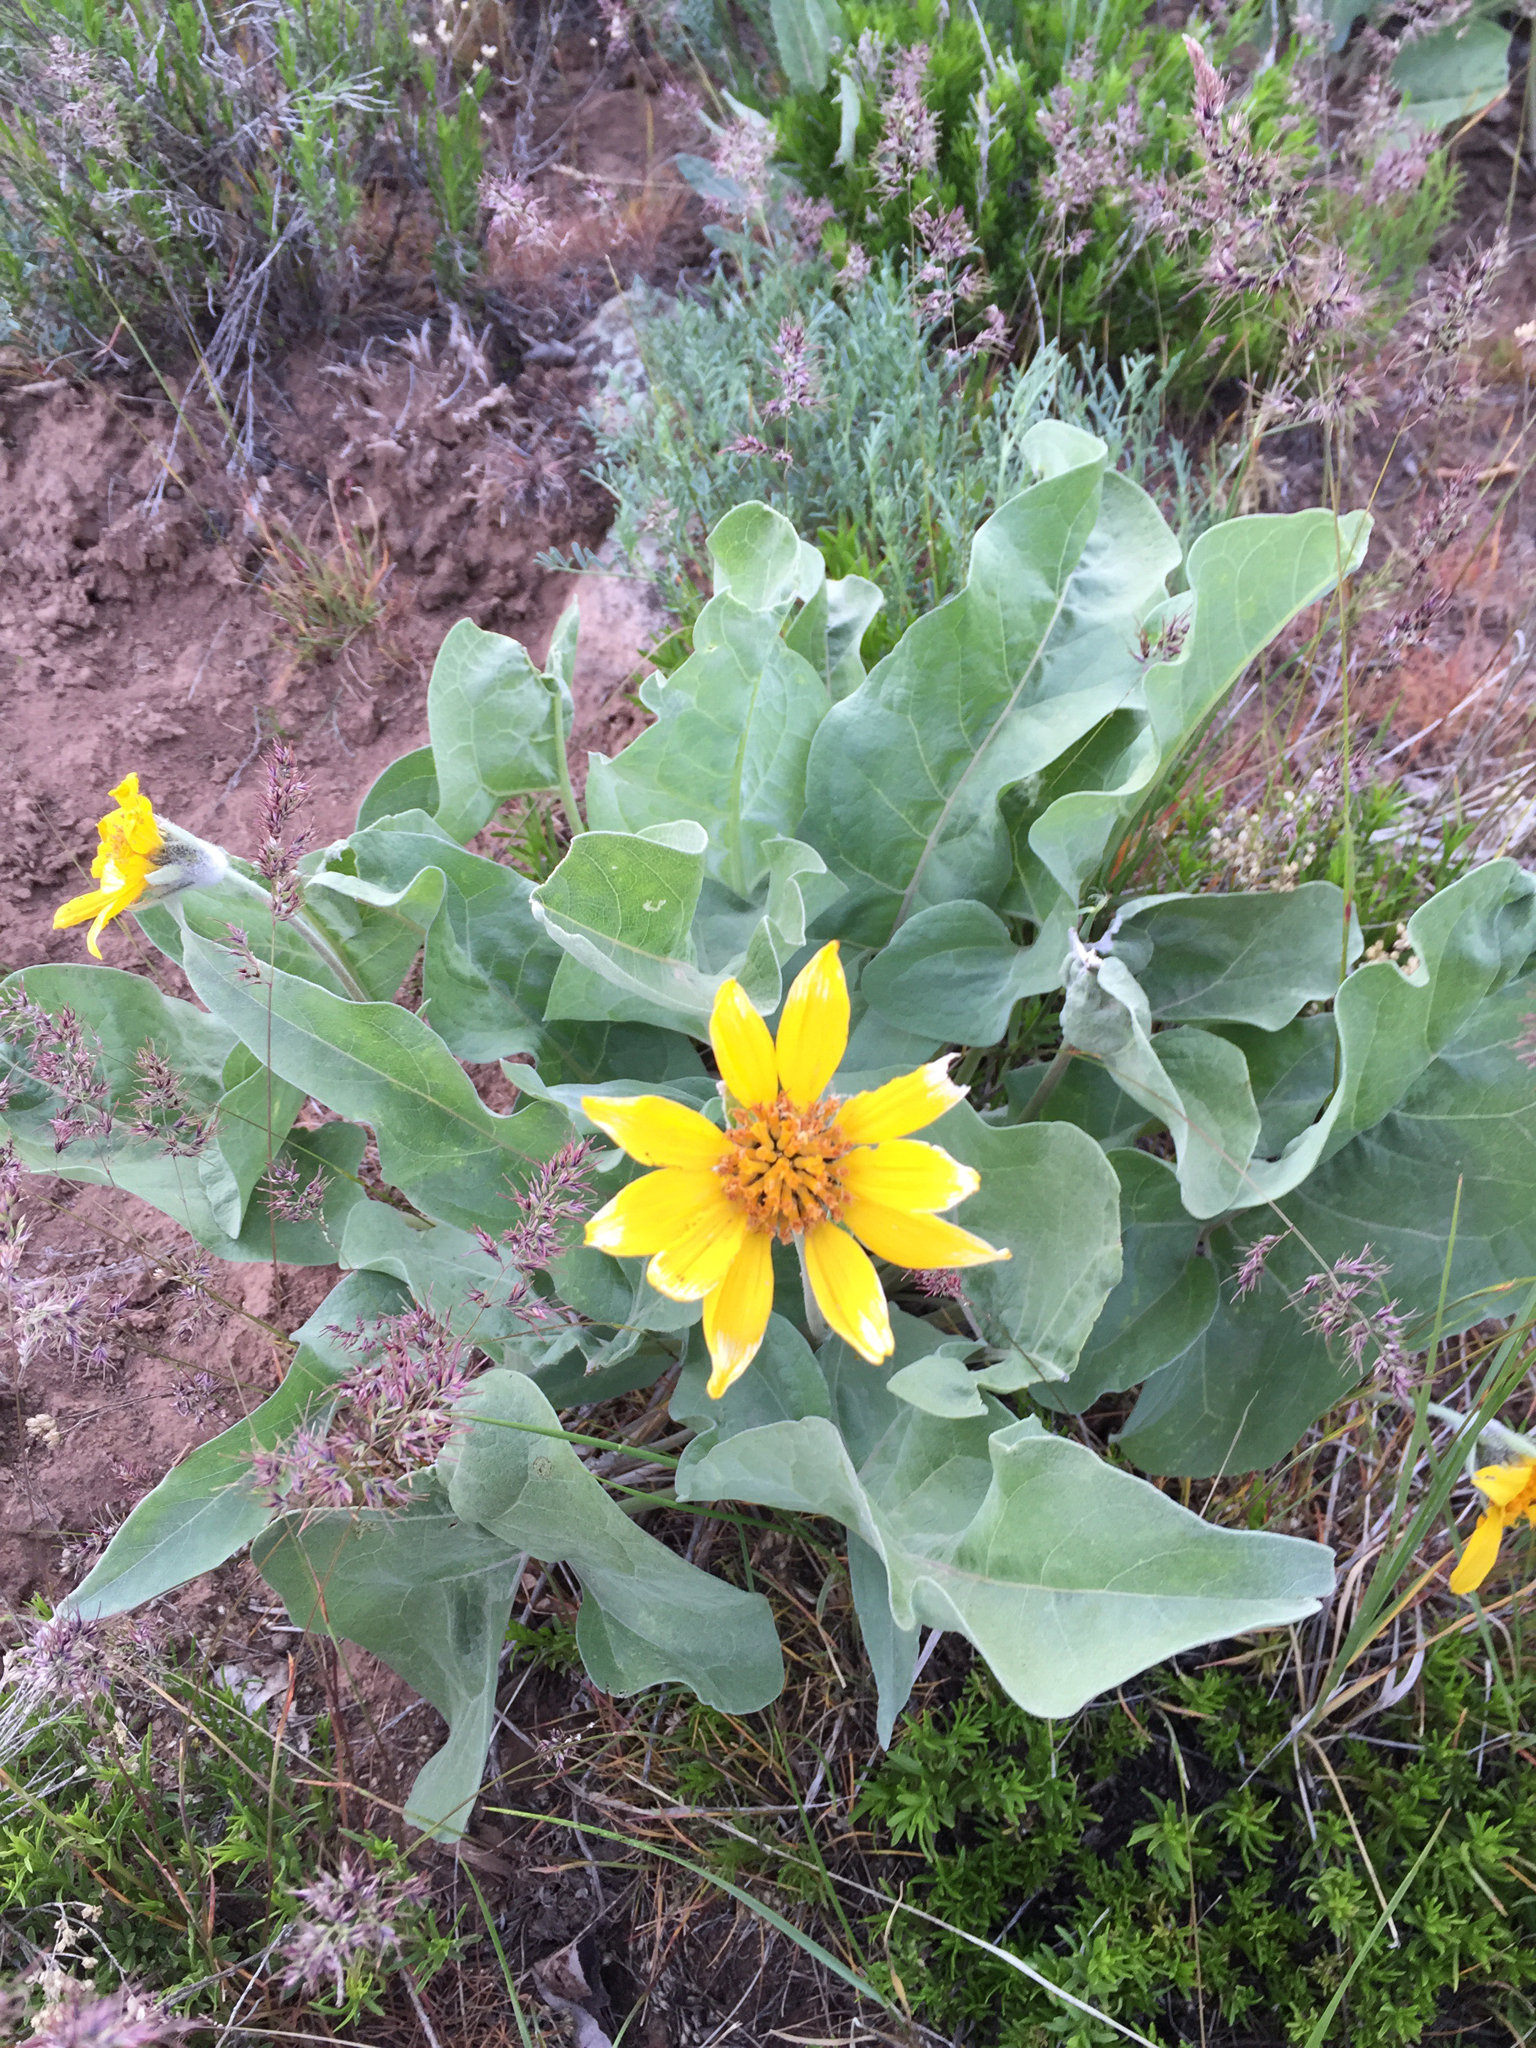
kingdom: Plantae
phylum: Tracheophyta
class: Magnoliopsida
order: Asterales
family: Asteraceae
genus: Wyethia
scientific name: Wyethia sagittata
